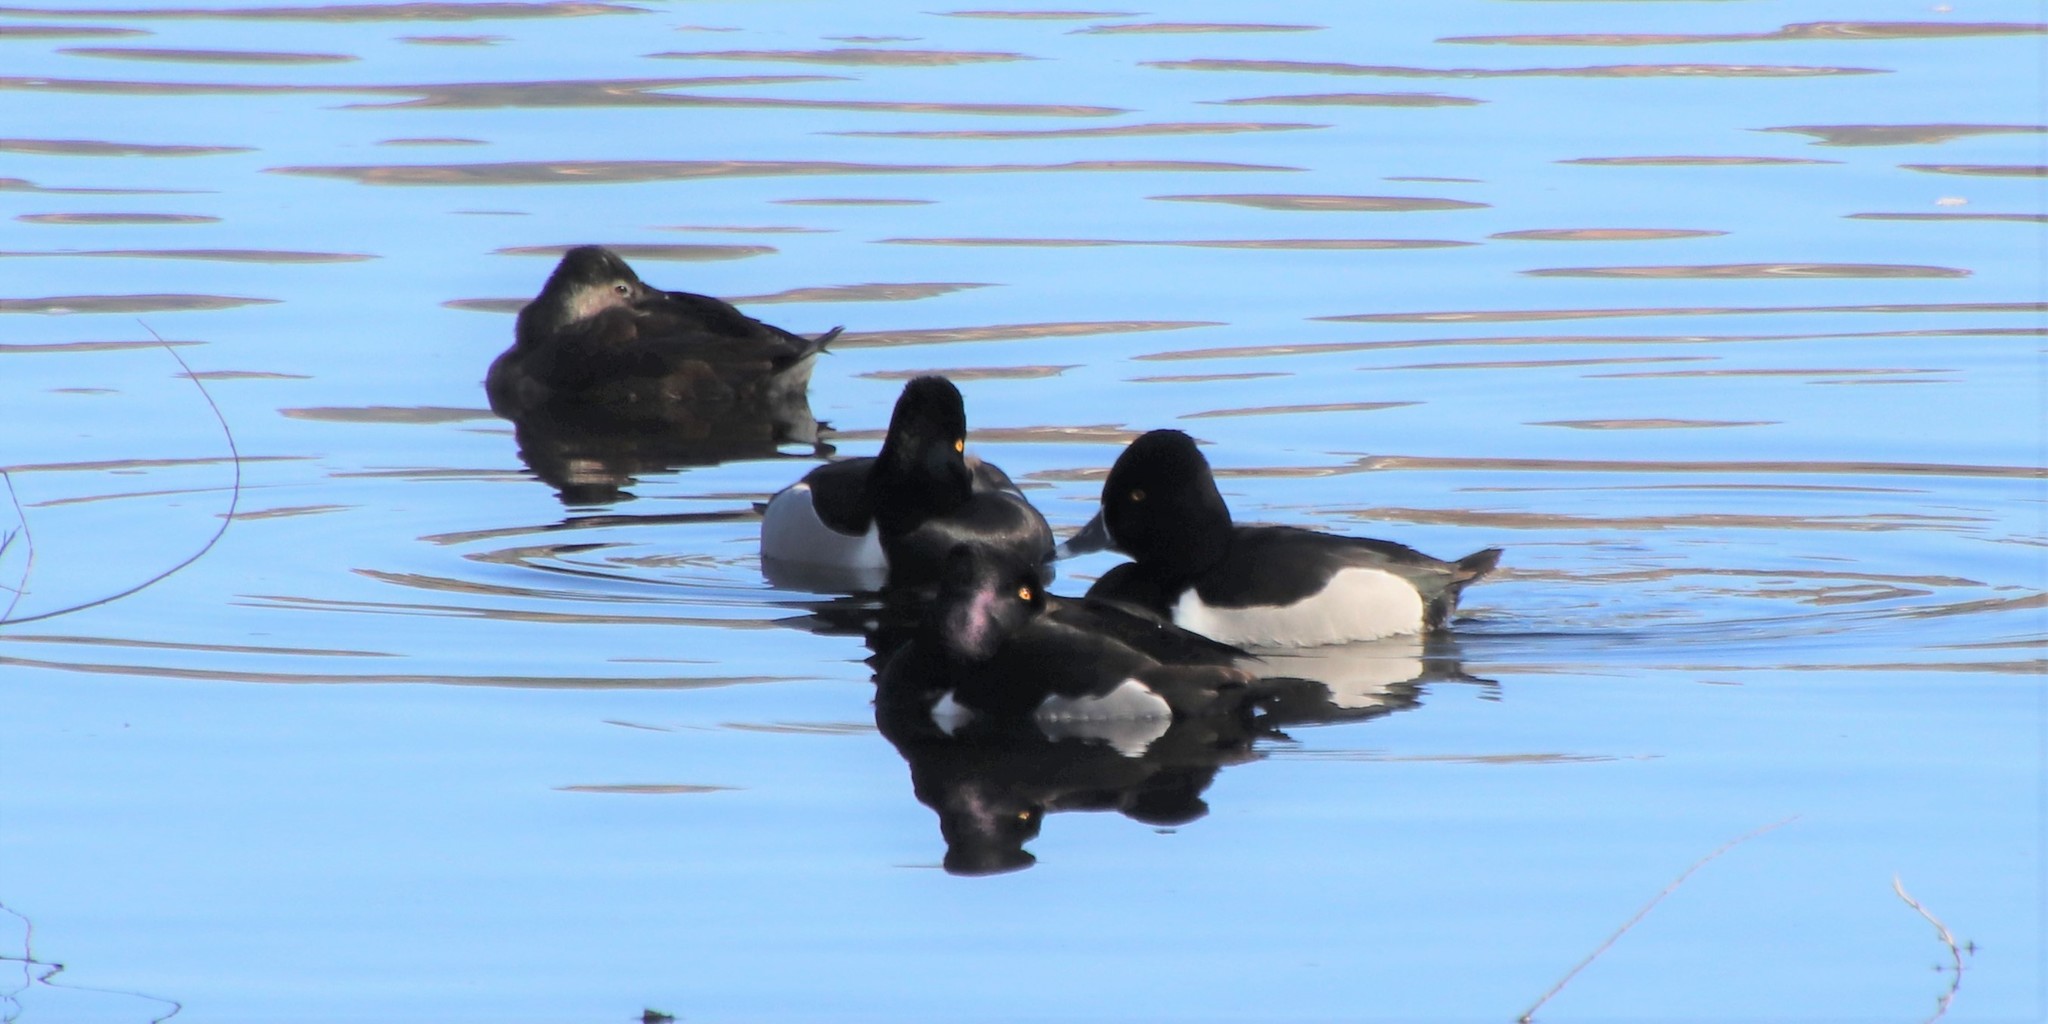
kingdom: Animalia
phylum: Chordata
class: Aves
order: Anseriformes
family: Anatidae
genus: Aythya
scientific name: Aythya collaris
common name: Ring-necked duck
